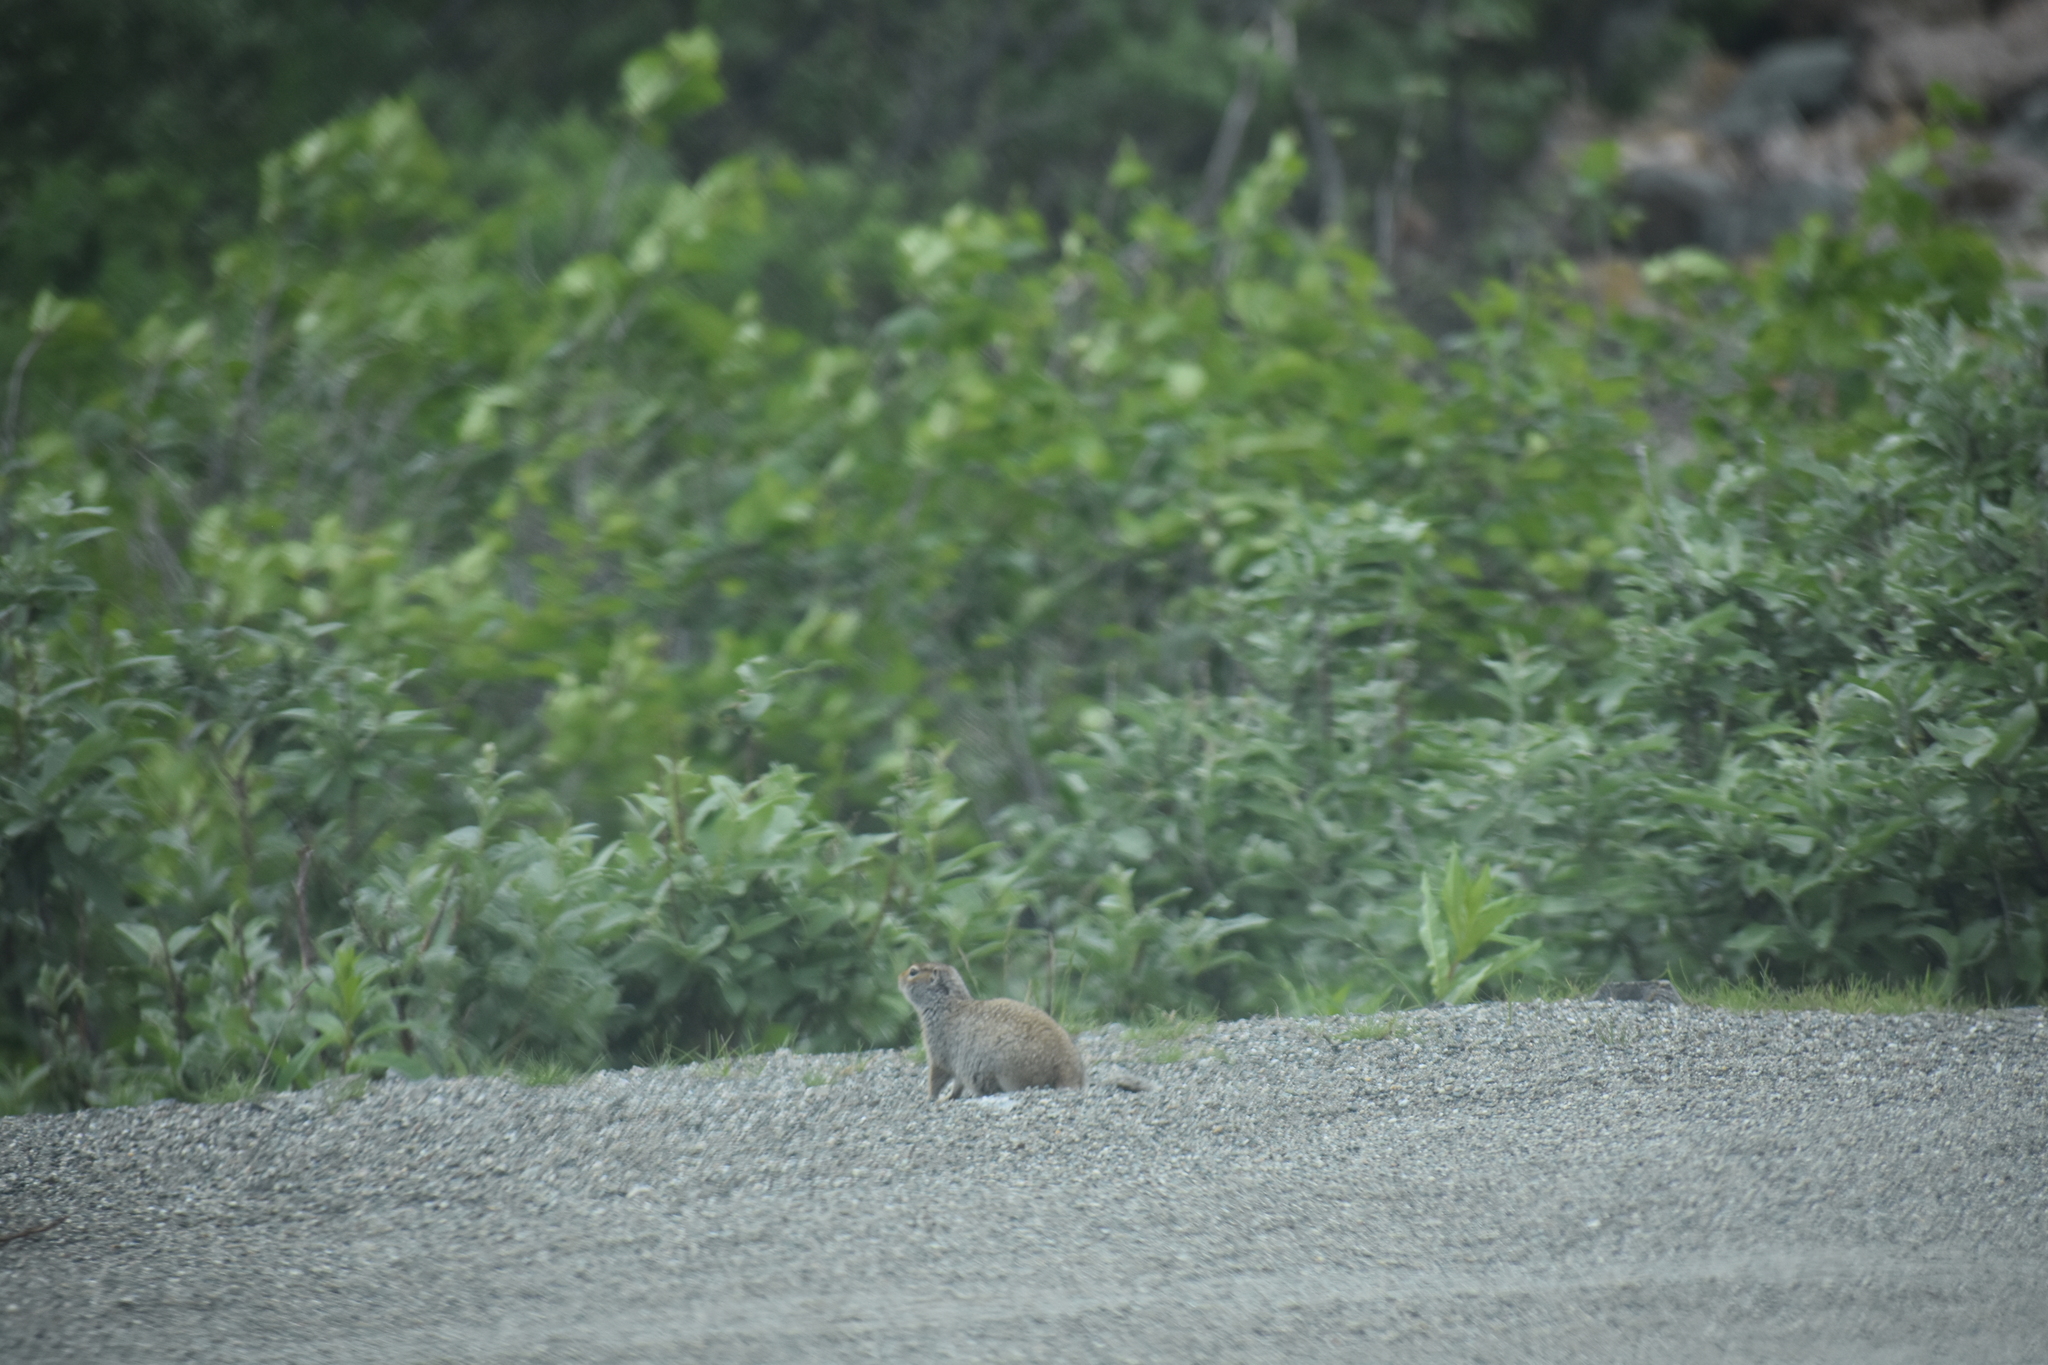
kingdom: Animalia
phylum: Chordata
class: Mammalia
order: Rodentia
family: Sciuridae
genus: Urocitellus
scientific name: Urocitellus parryii
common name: Arctic ground squirrel
